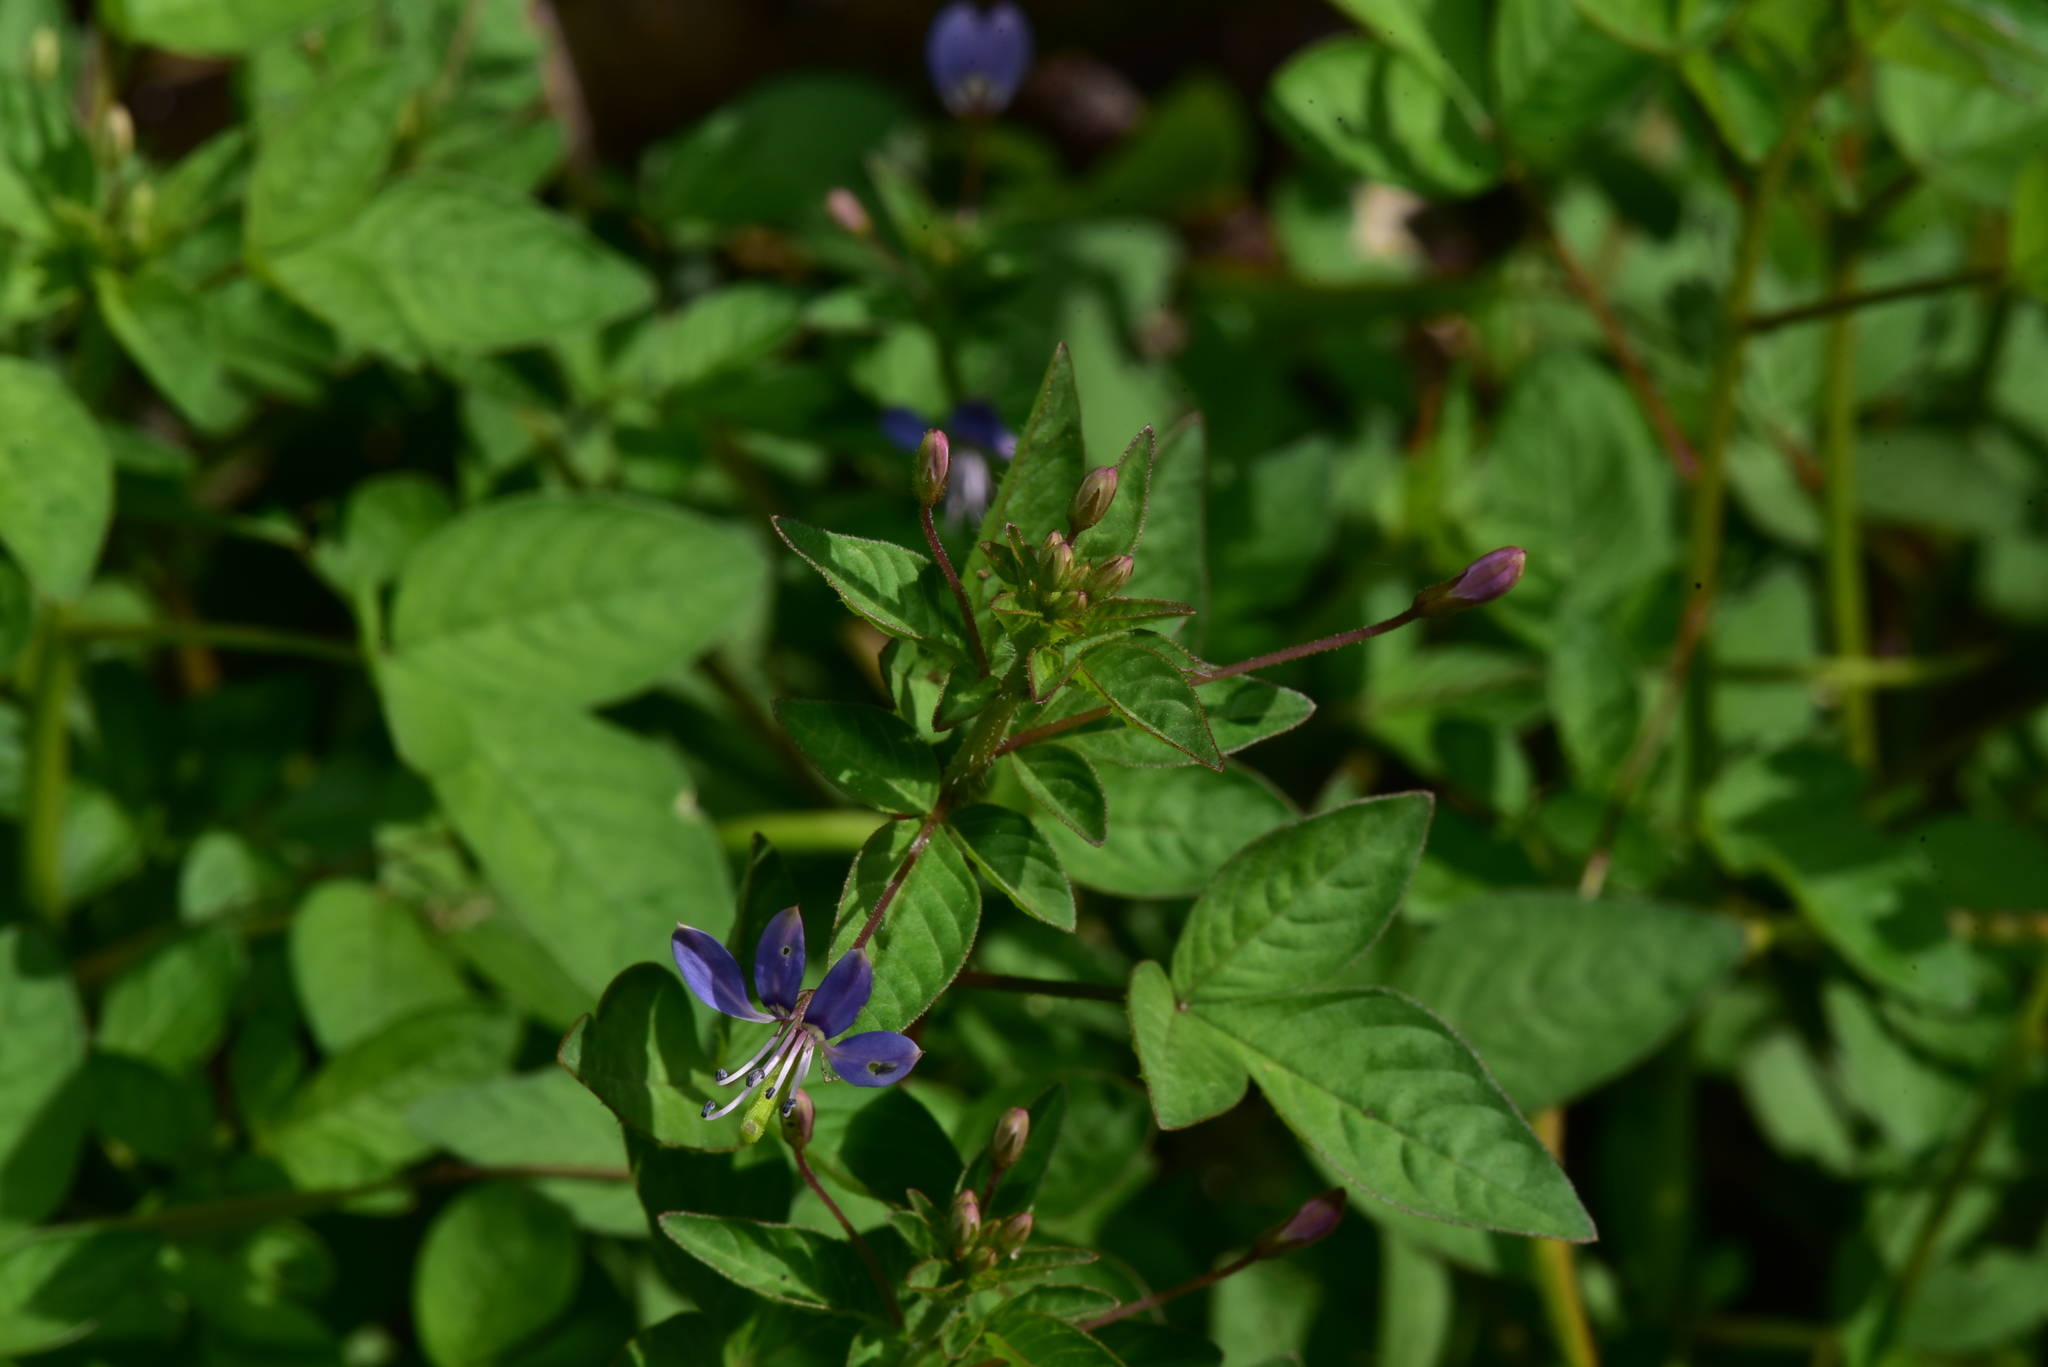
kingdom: Plantae
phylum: Tracheophyta
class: Magnoliopsida
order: Brassicales
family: Cleomaceae
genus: Sieruela
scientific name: Sieruela rutidosperma
